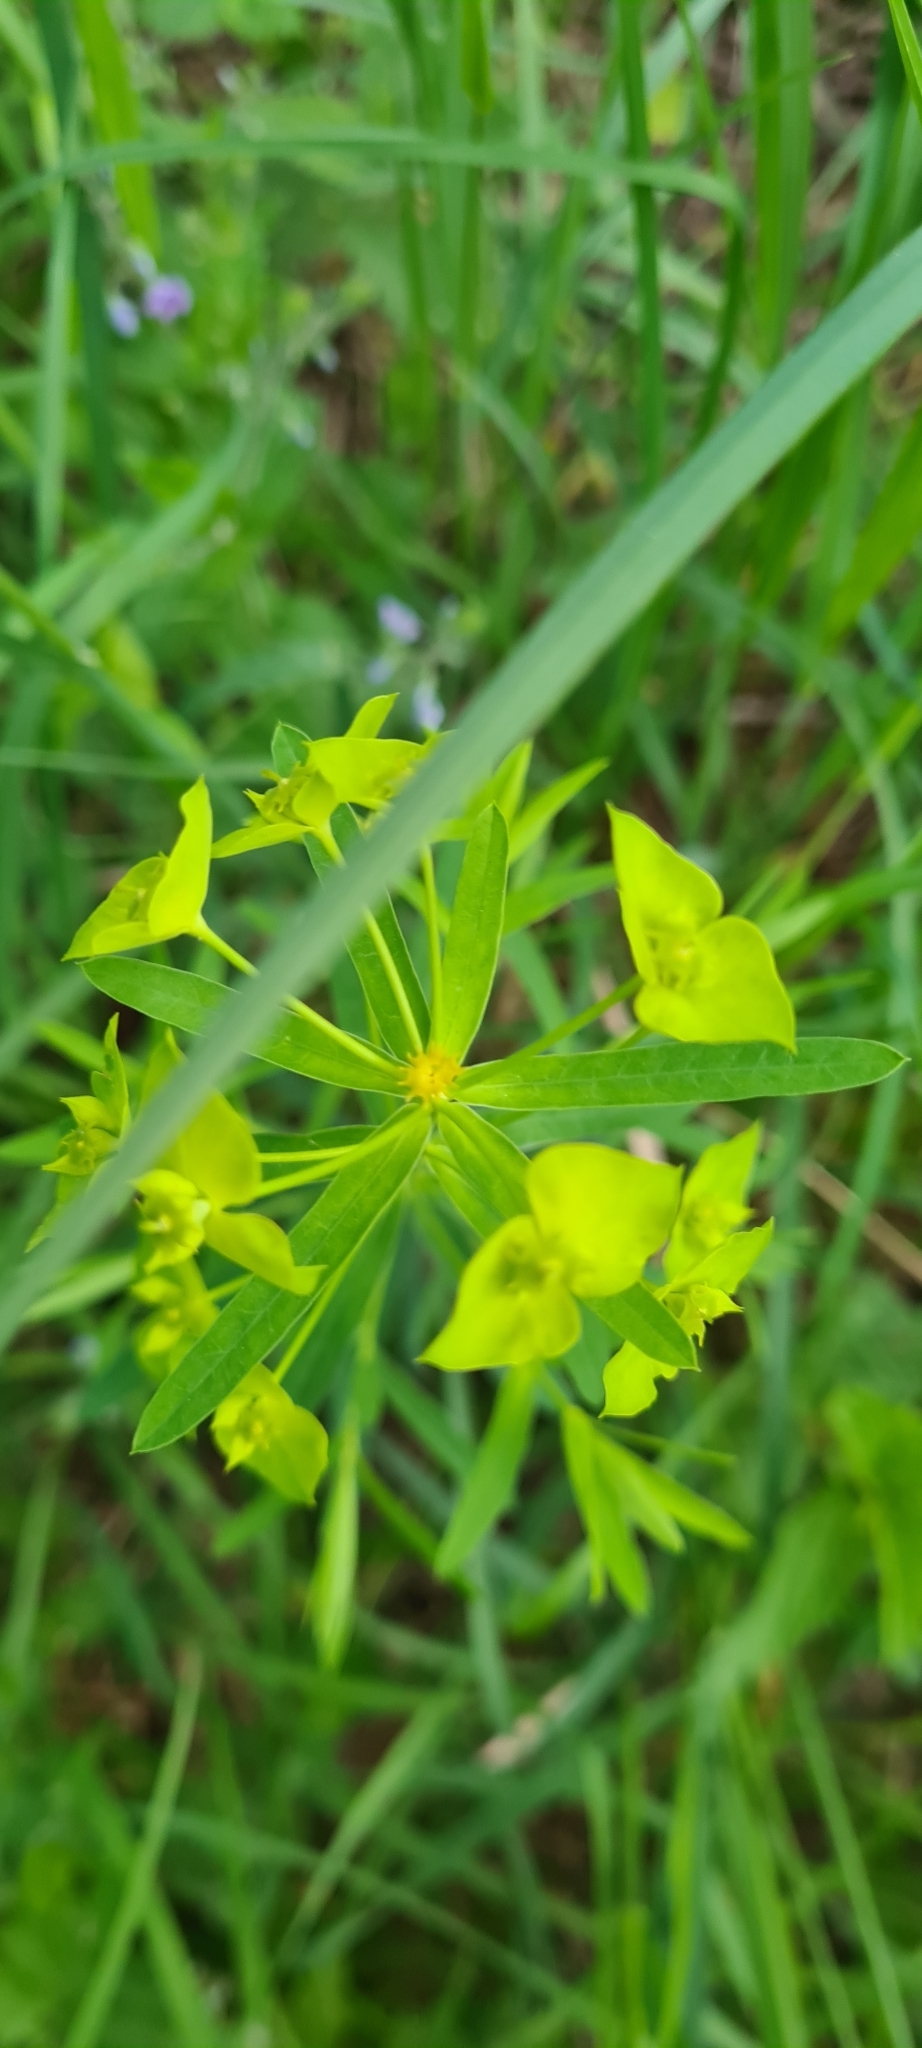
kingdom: Plantae
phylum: Tracheophyta
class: Magnoliopsida
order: Malpighiales
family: Euphorbiaceae
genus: Euphorbia
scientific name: Euphorbia virgata
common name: Leafy spurge
